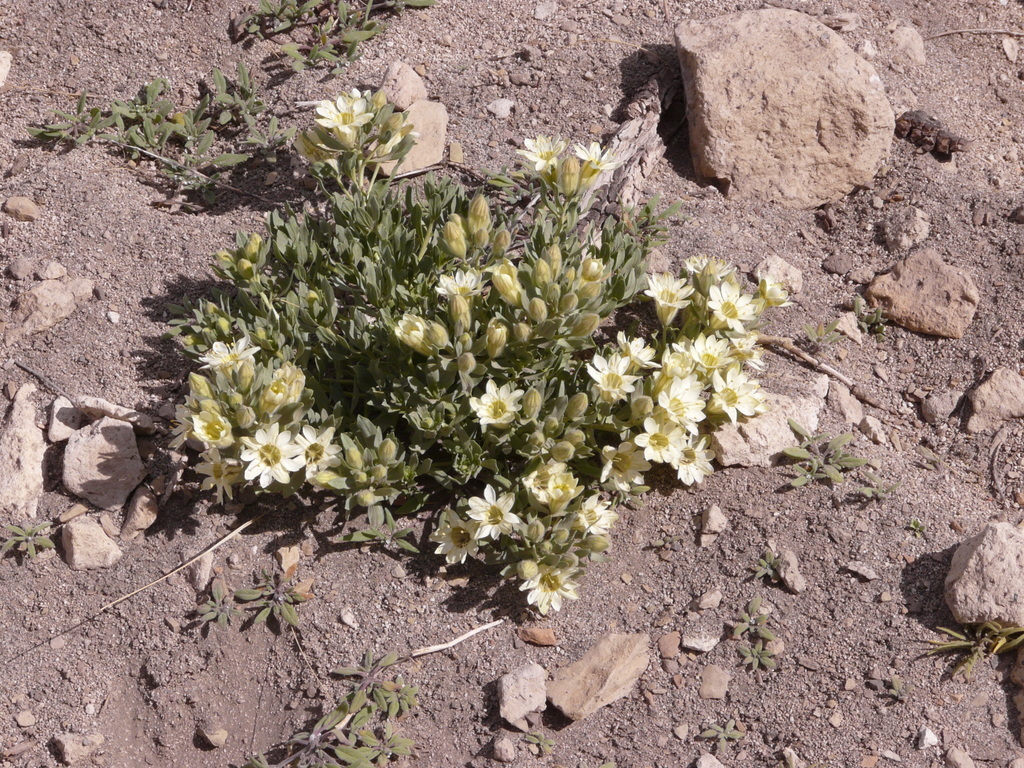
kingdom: Plantae
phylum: Tracheophyta
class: Magnoliopsida
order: Malpighiales
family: Malesherbiaceae
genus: Malesherbia
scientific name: Malesherbia lirana
